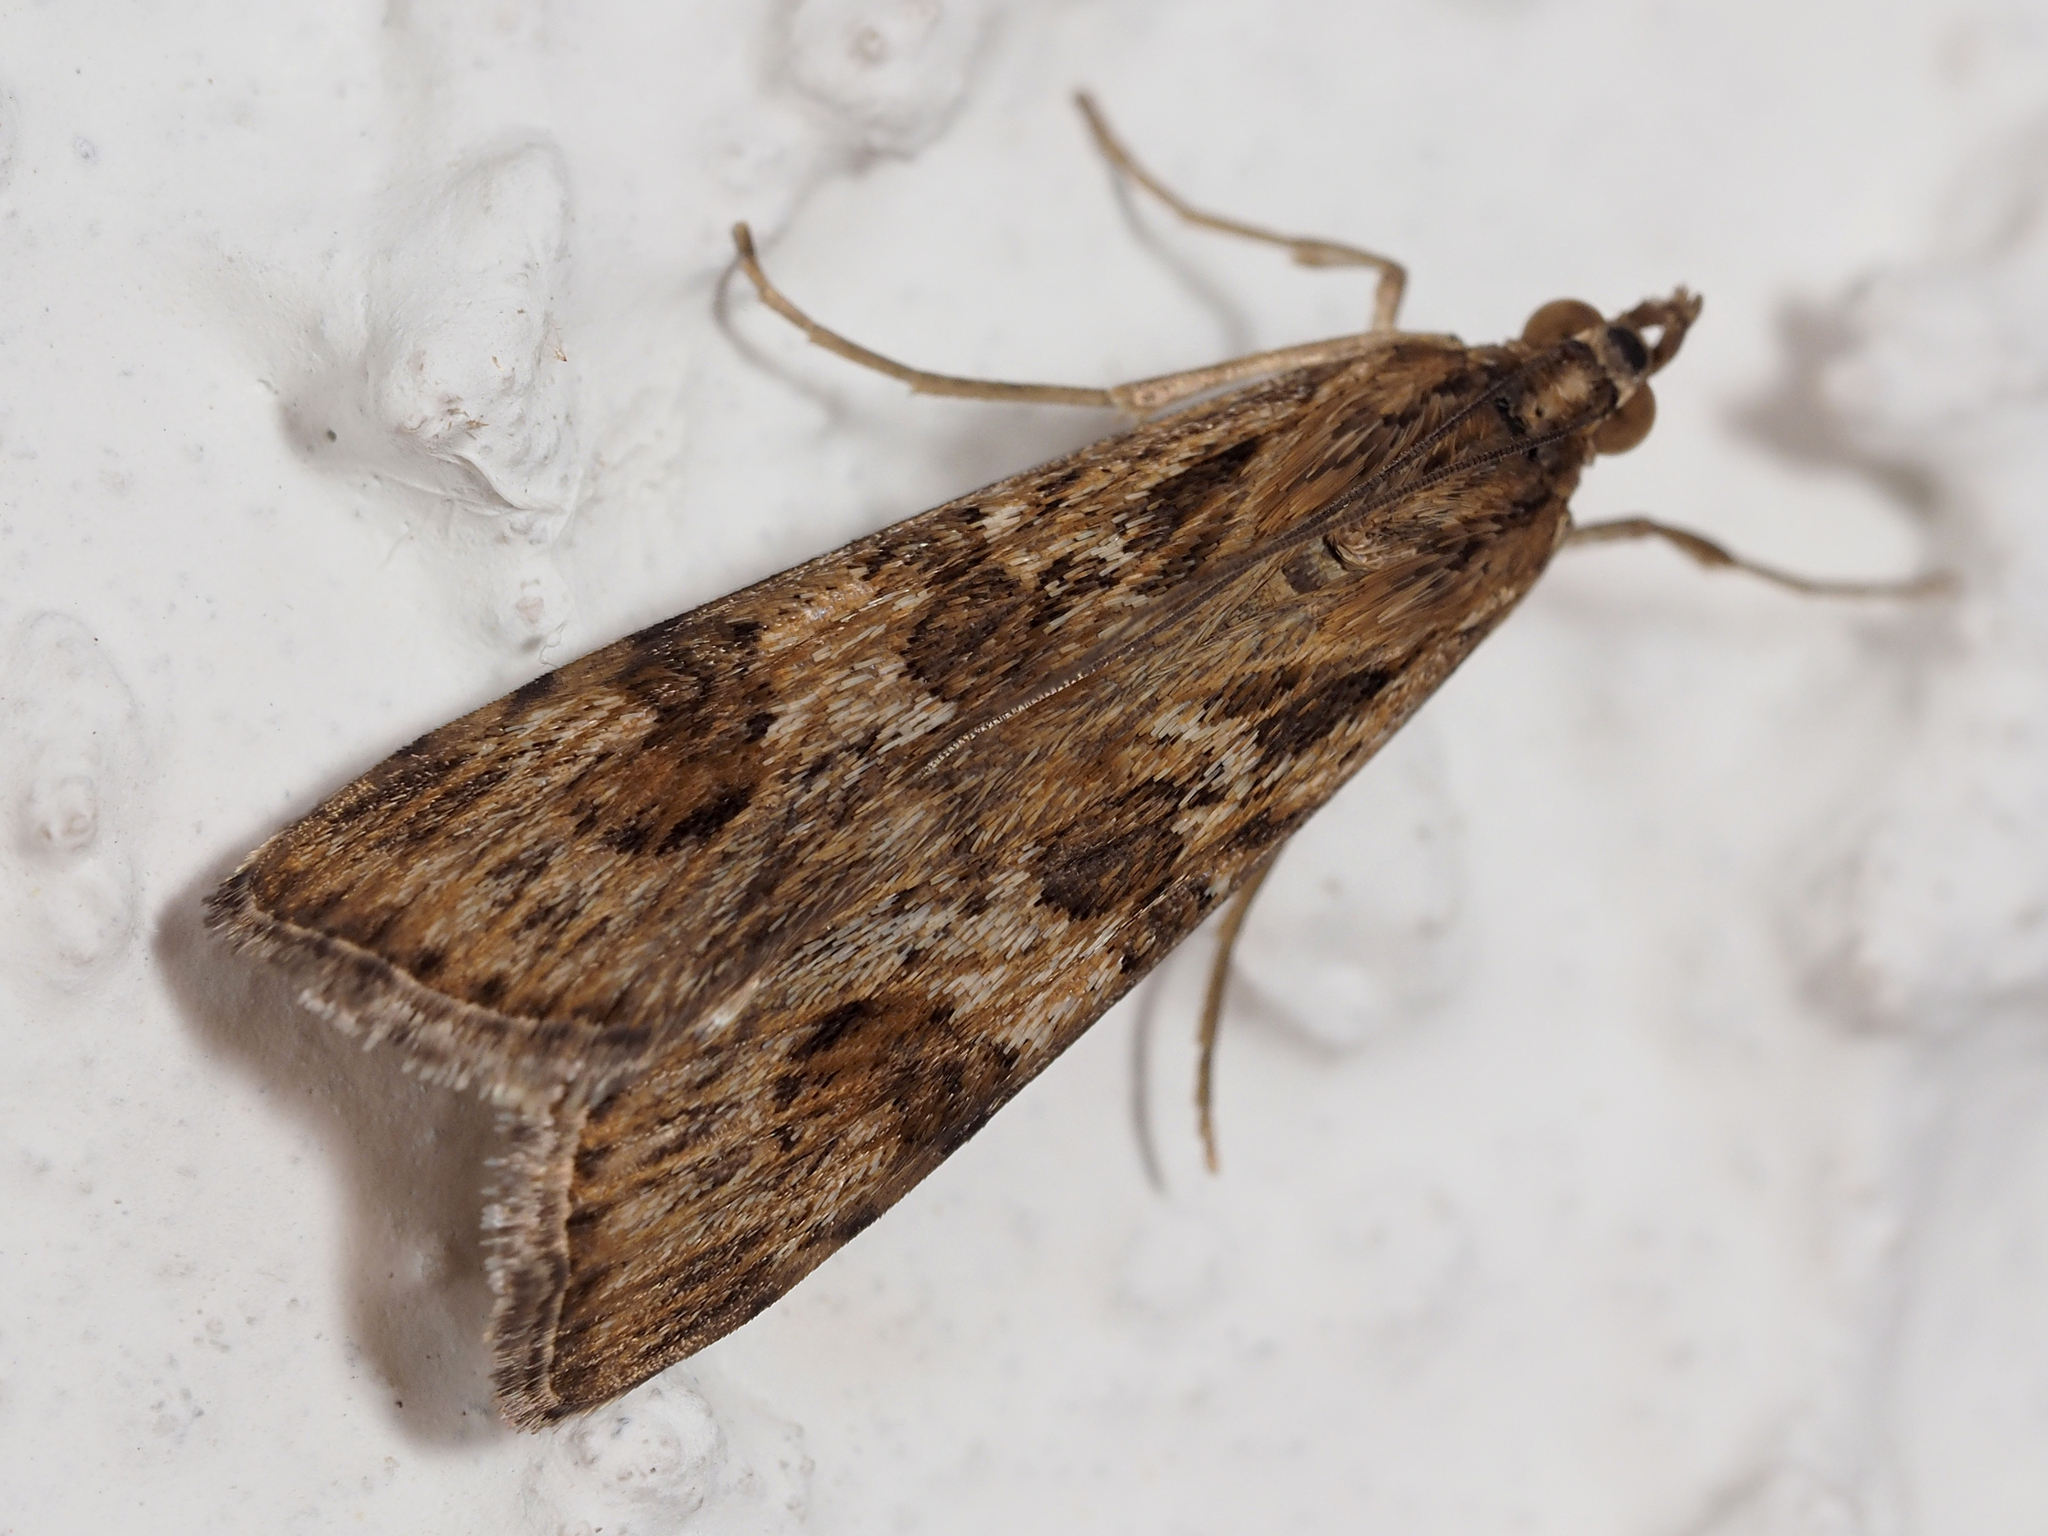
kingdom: Animalia
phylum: Arthropoda
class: Insecta
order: Lepidoptera
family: Crambidae
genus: Nomophila
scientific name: Nomophila noctuella
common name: Rush veneer
